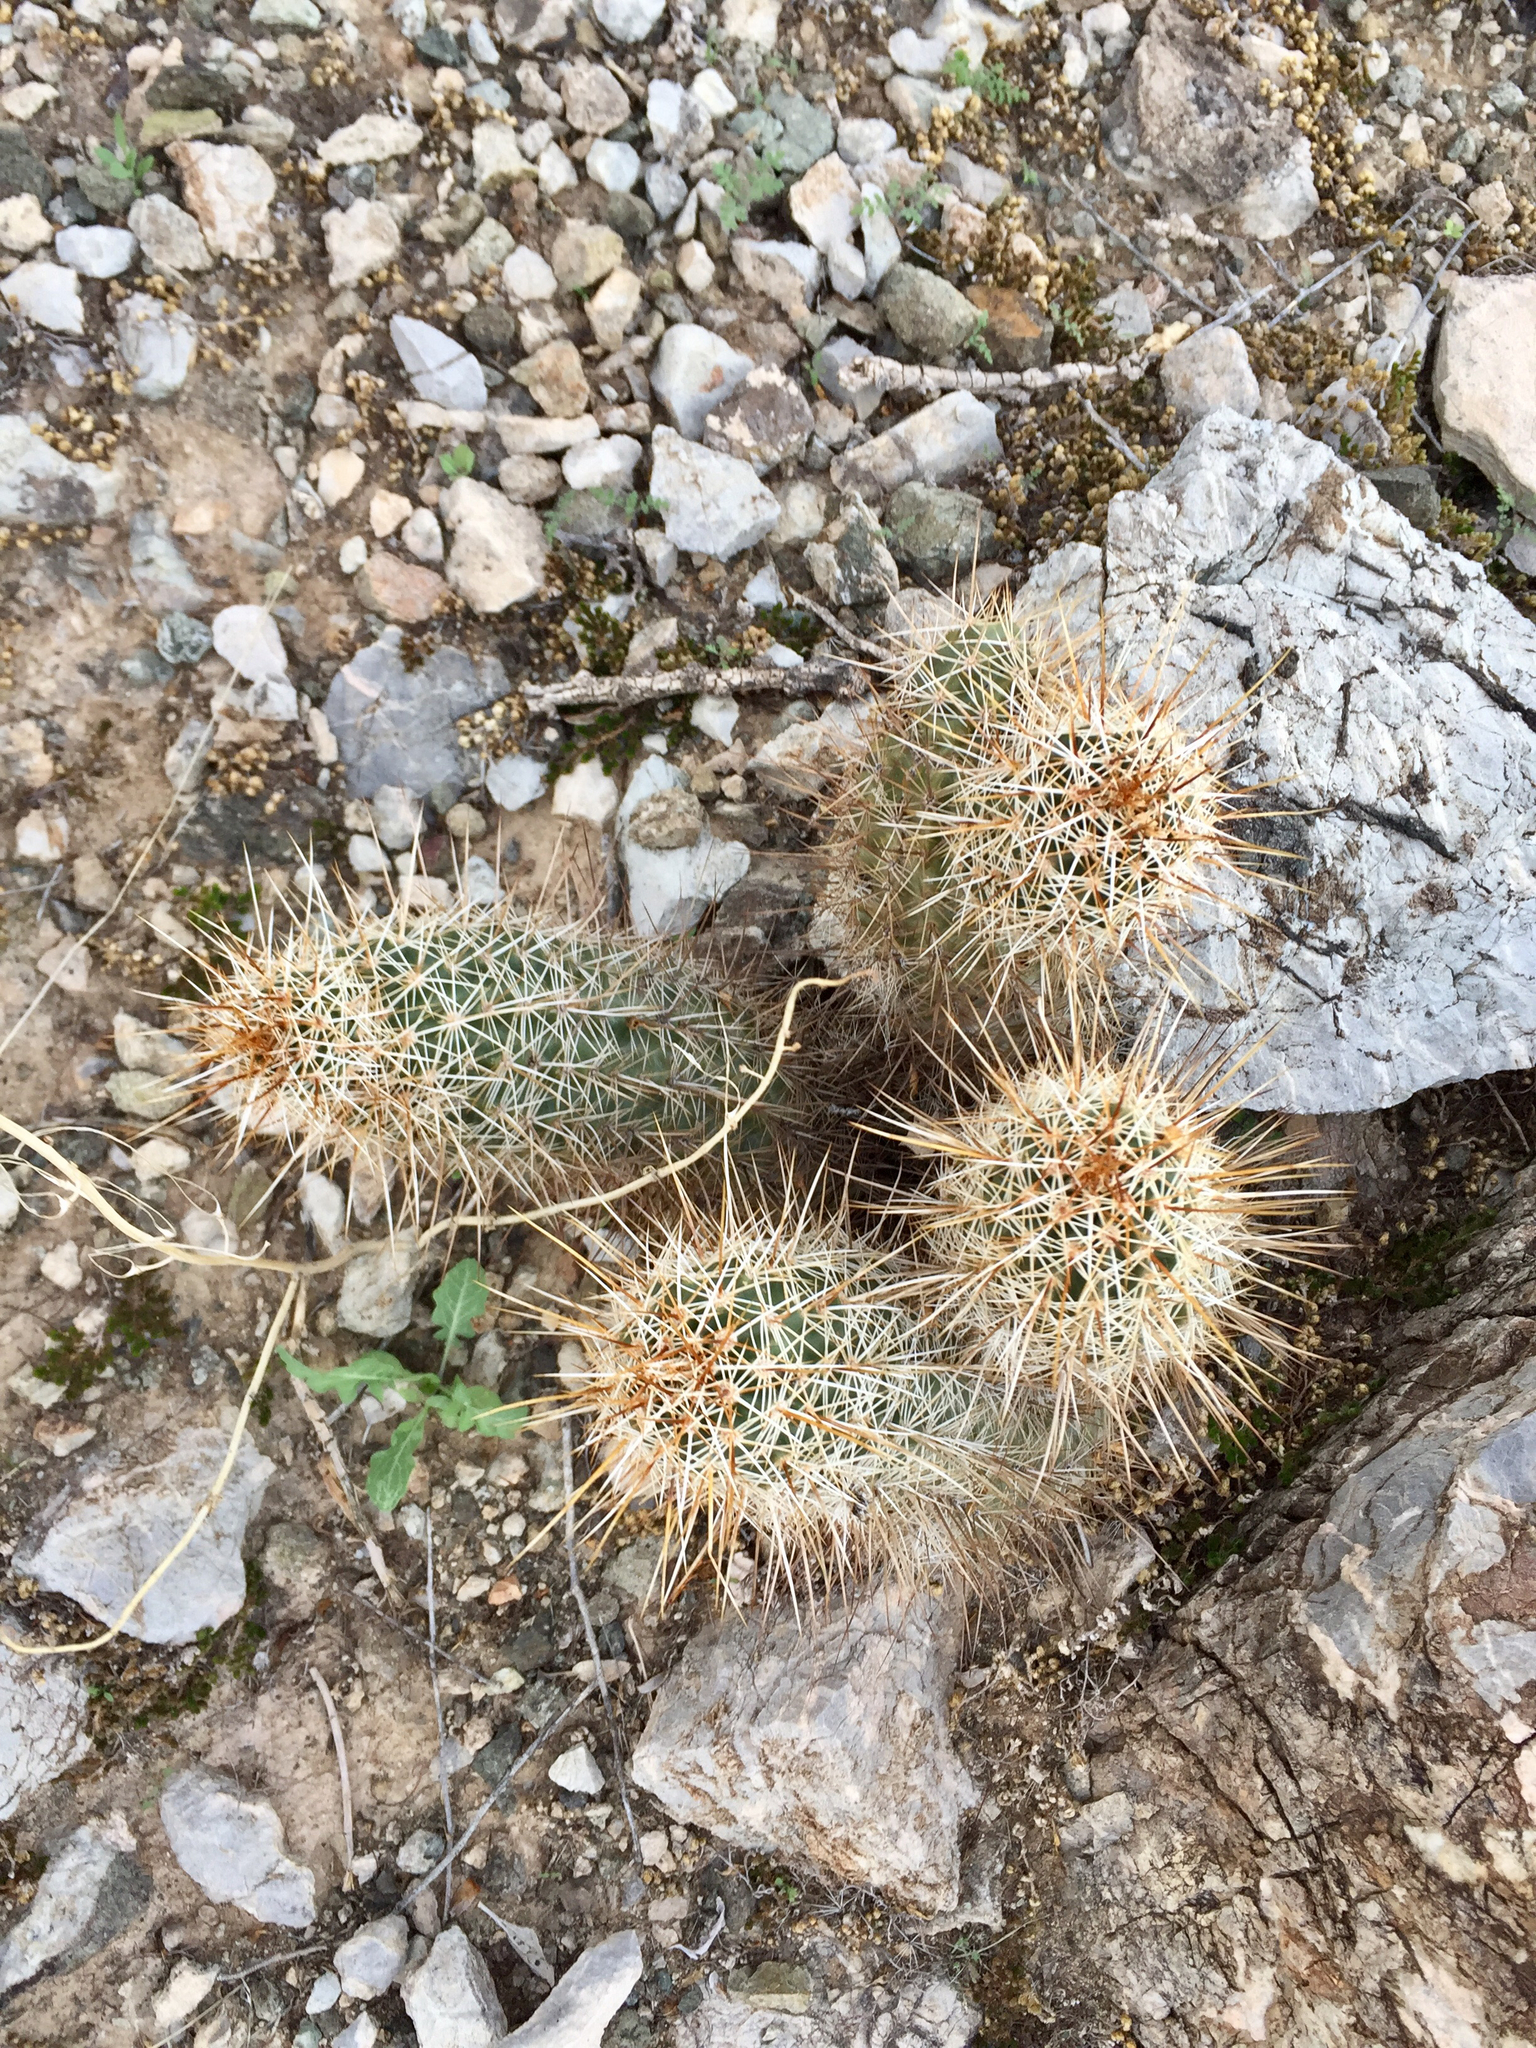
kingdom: Plantae
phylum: Tracheophyta
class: Magnoliopsida
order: Caryophyllales
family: Cactaceae
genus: Echinocereus
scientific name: Echinocereus fasciculatus
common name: Bundle hedgehog
